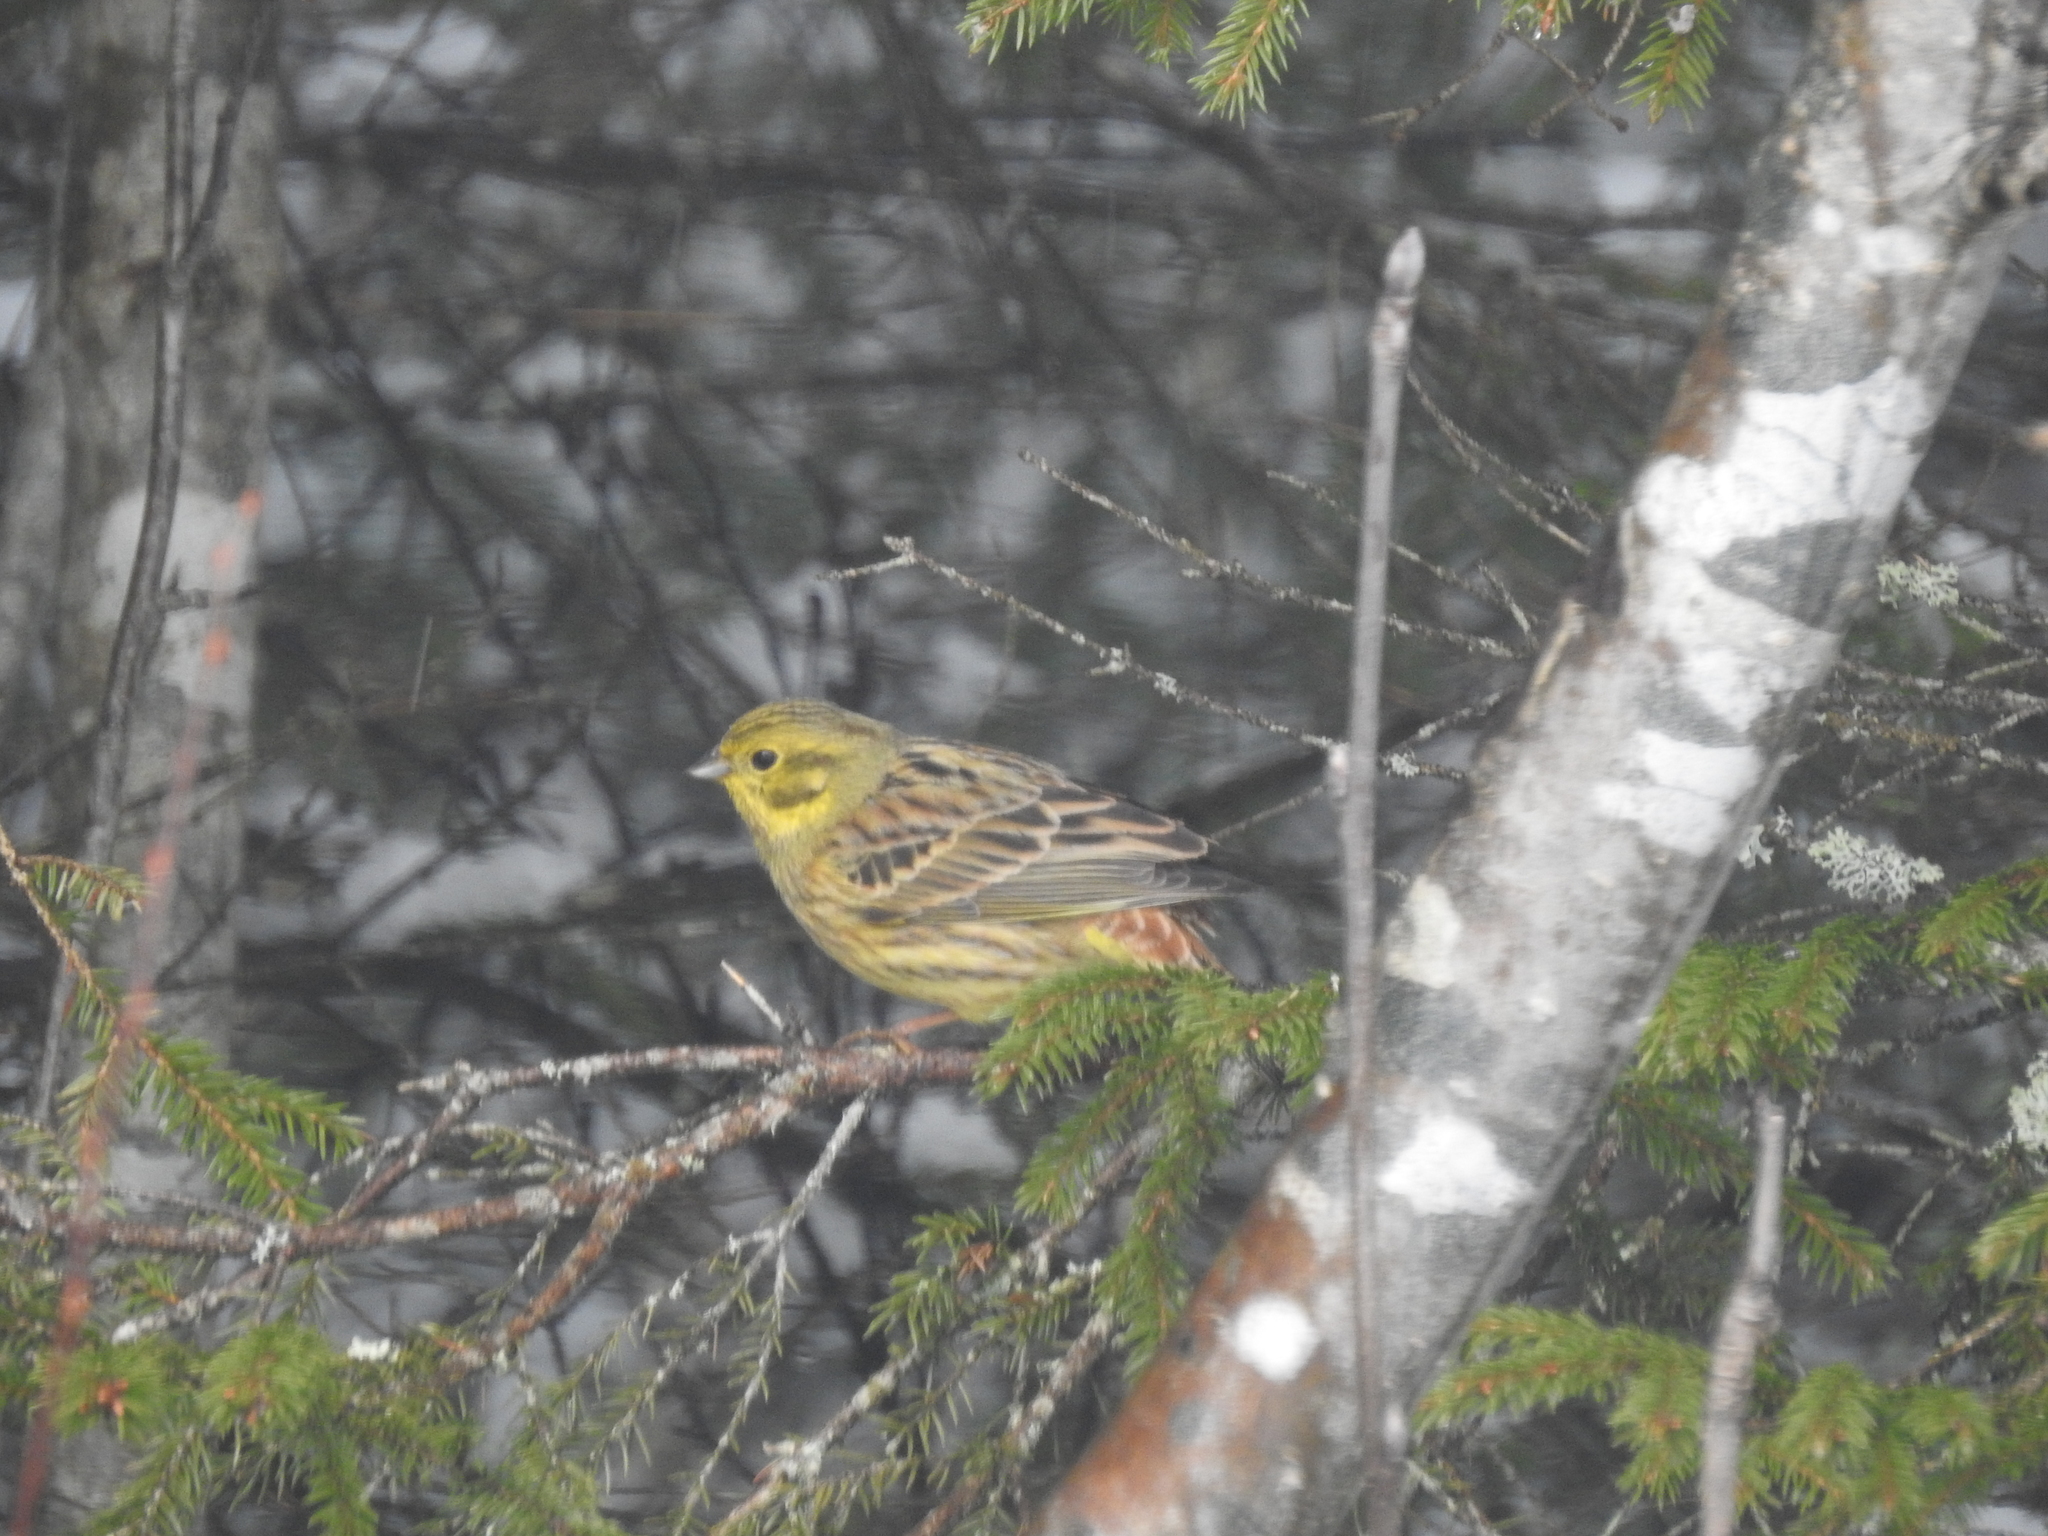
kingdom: Animalia
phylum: Chordata
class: Aves
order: Passeriformes
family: Emberizidae
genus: Emberiza
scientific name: Emberiza citrinella
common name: Yellowhammer
